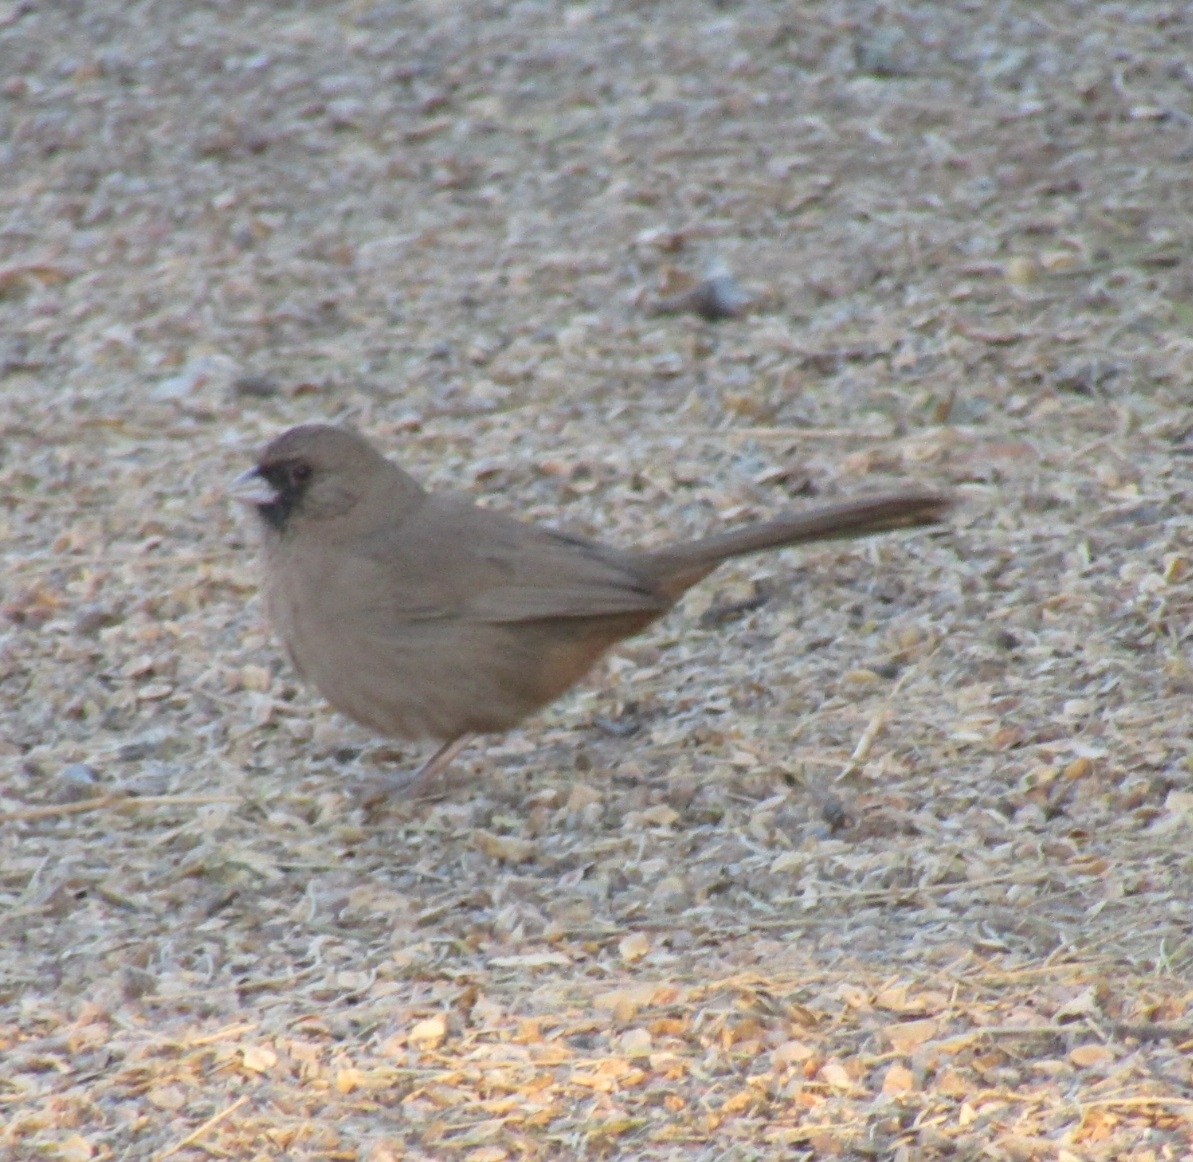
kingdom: Animalia
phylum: Chordata
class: Aves
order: Passeriformes
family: Passerellidae
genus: Melozone
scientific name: Melozone aberti
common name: Abert's towhee
